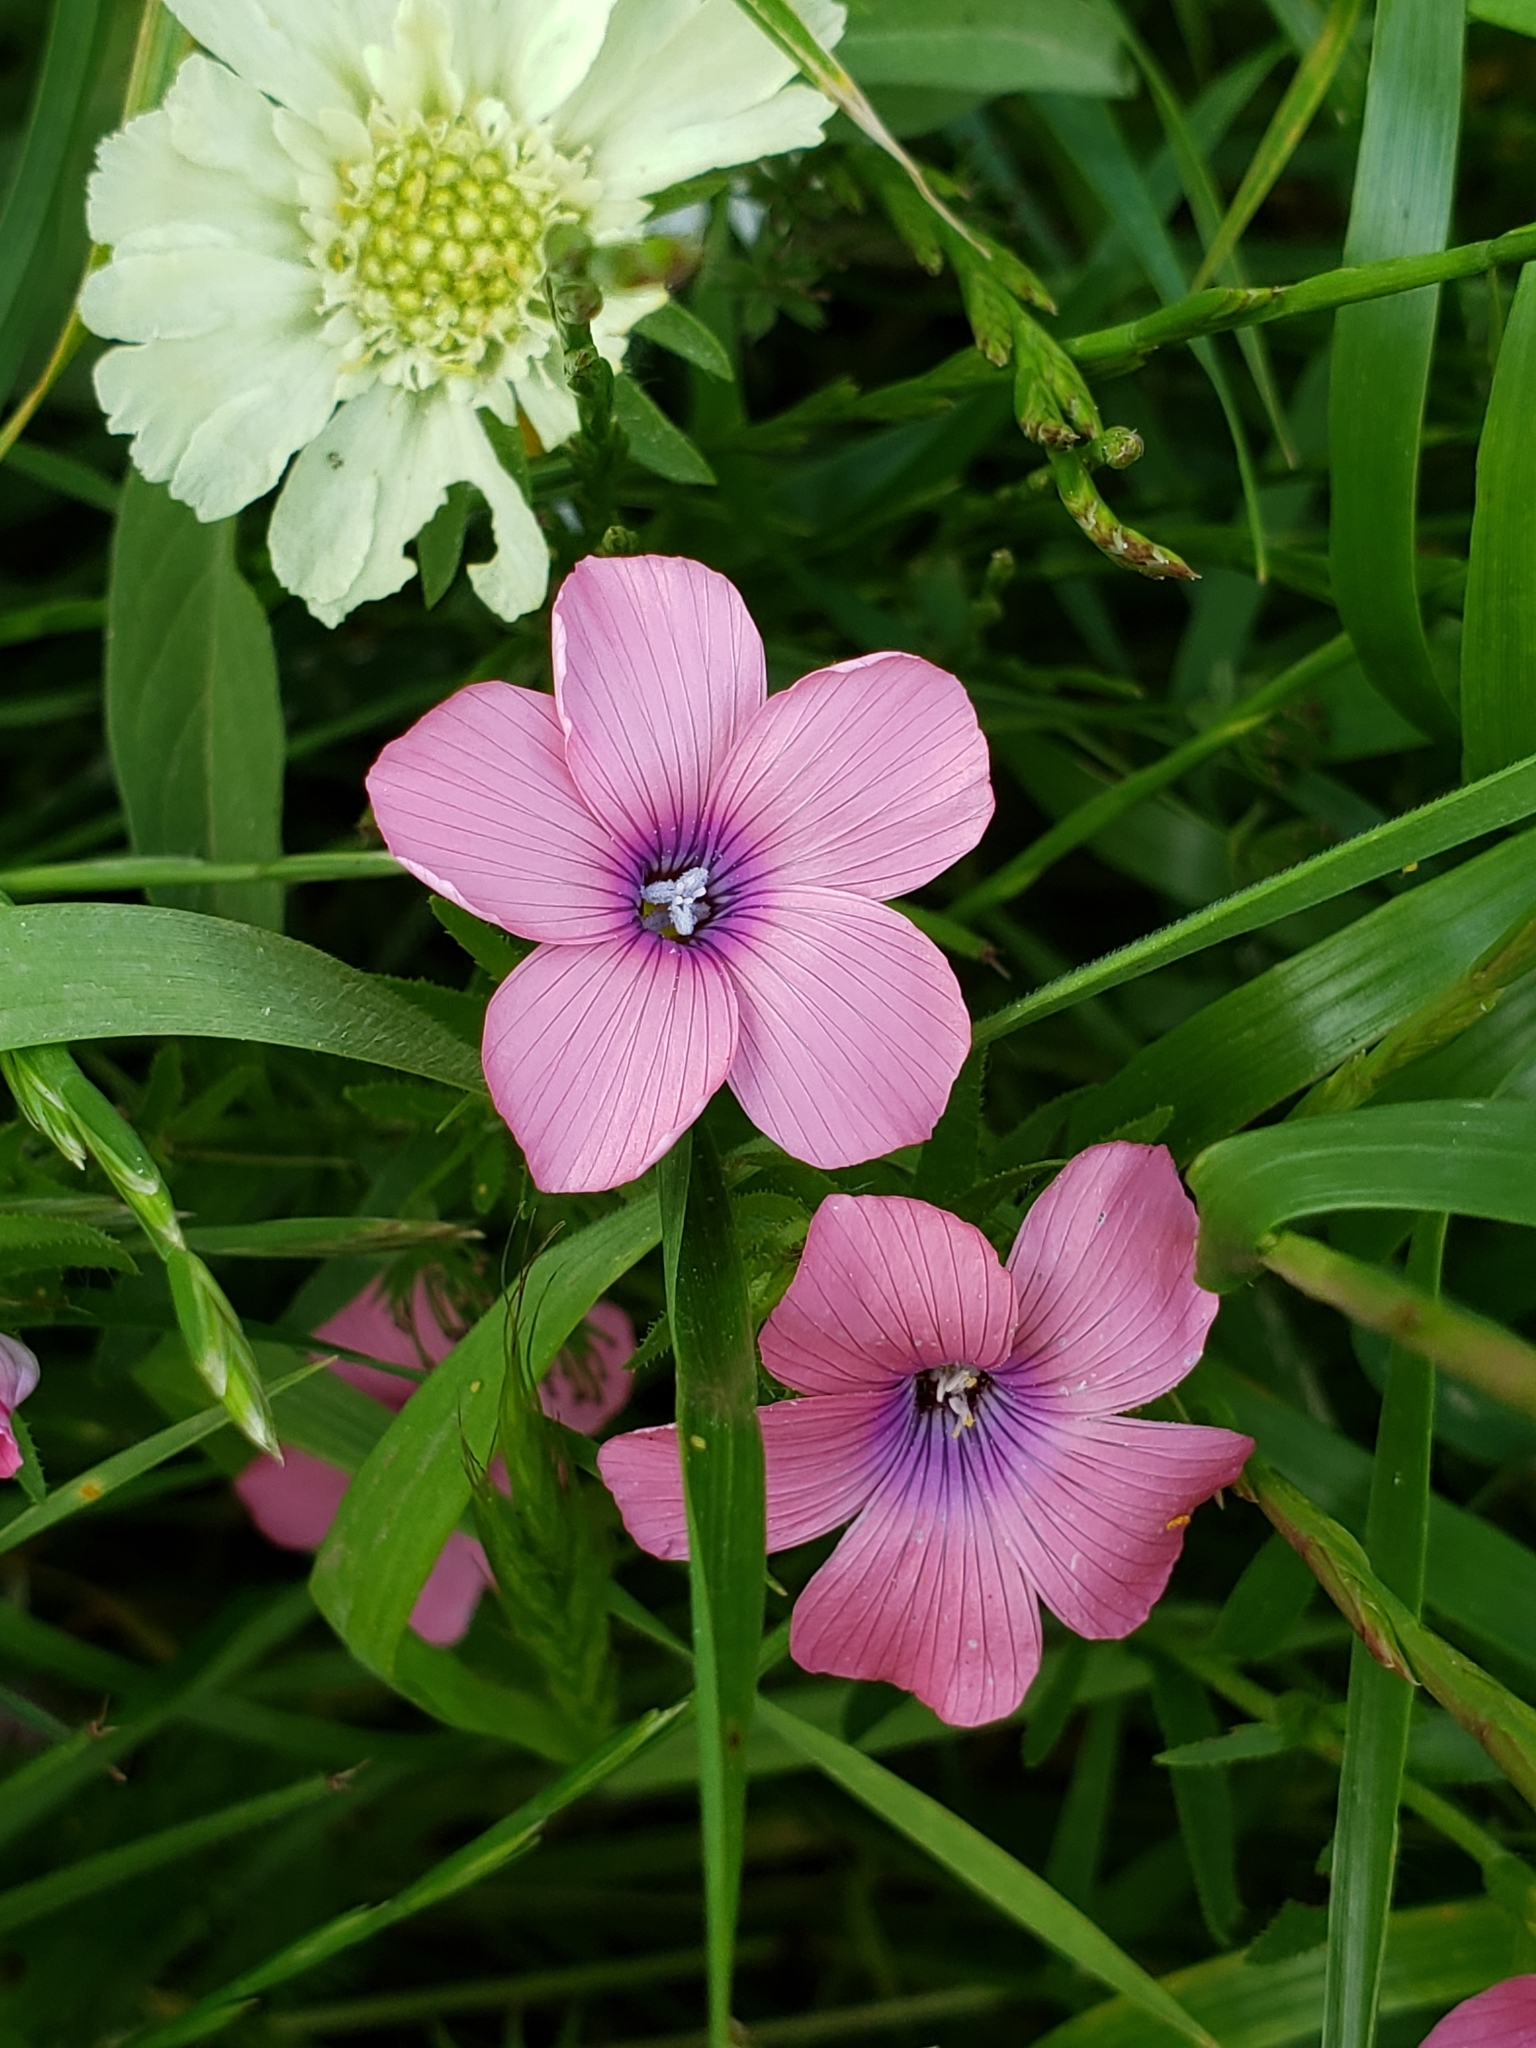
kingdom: Plantae
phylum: Tracheophyta
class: Magnoliopsida
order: Malpighiales
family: Linaceae
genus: Linum
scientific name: Linum pubescens
